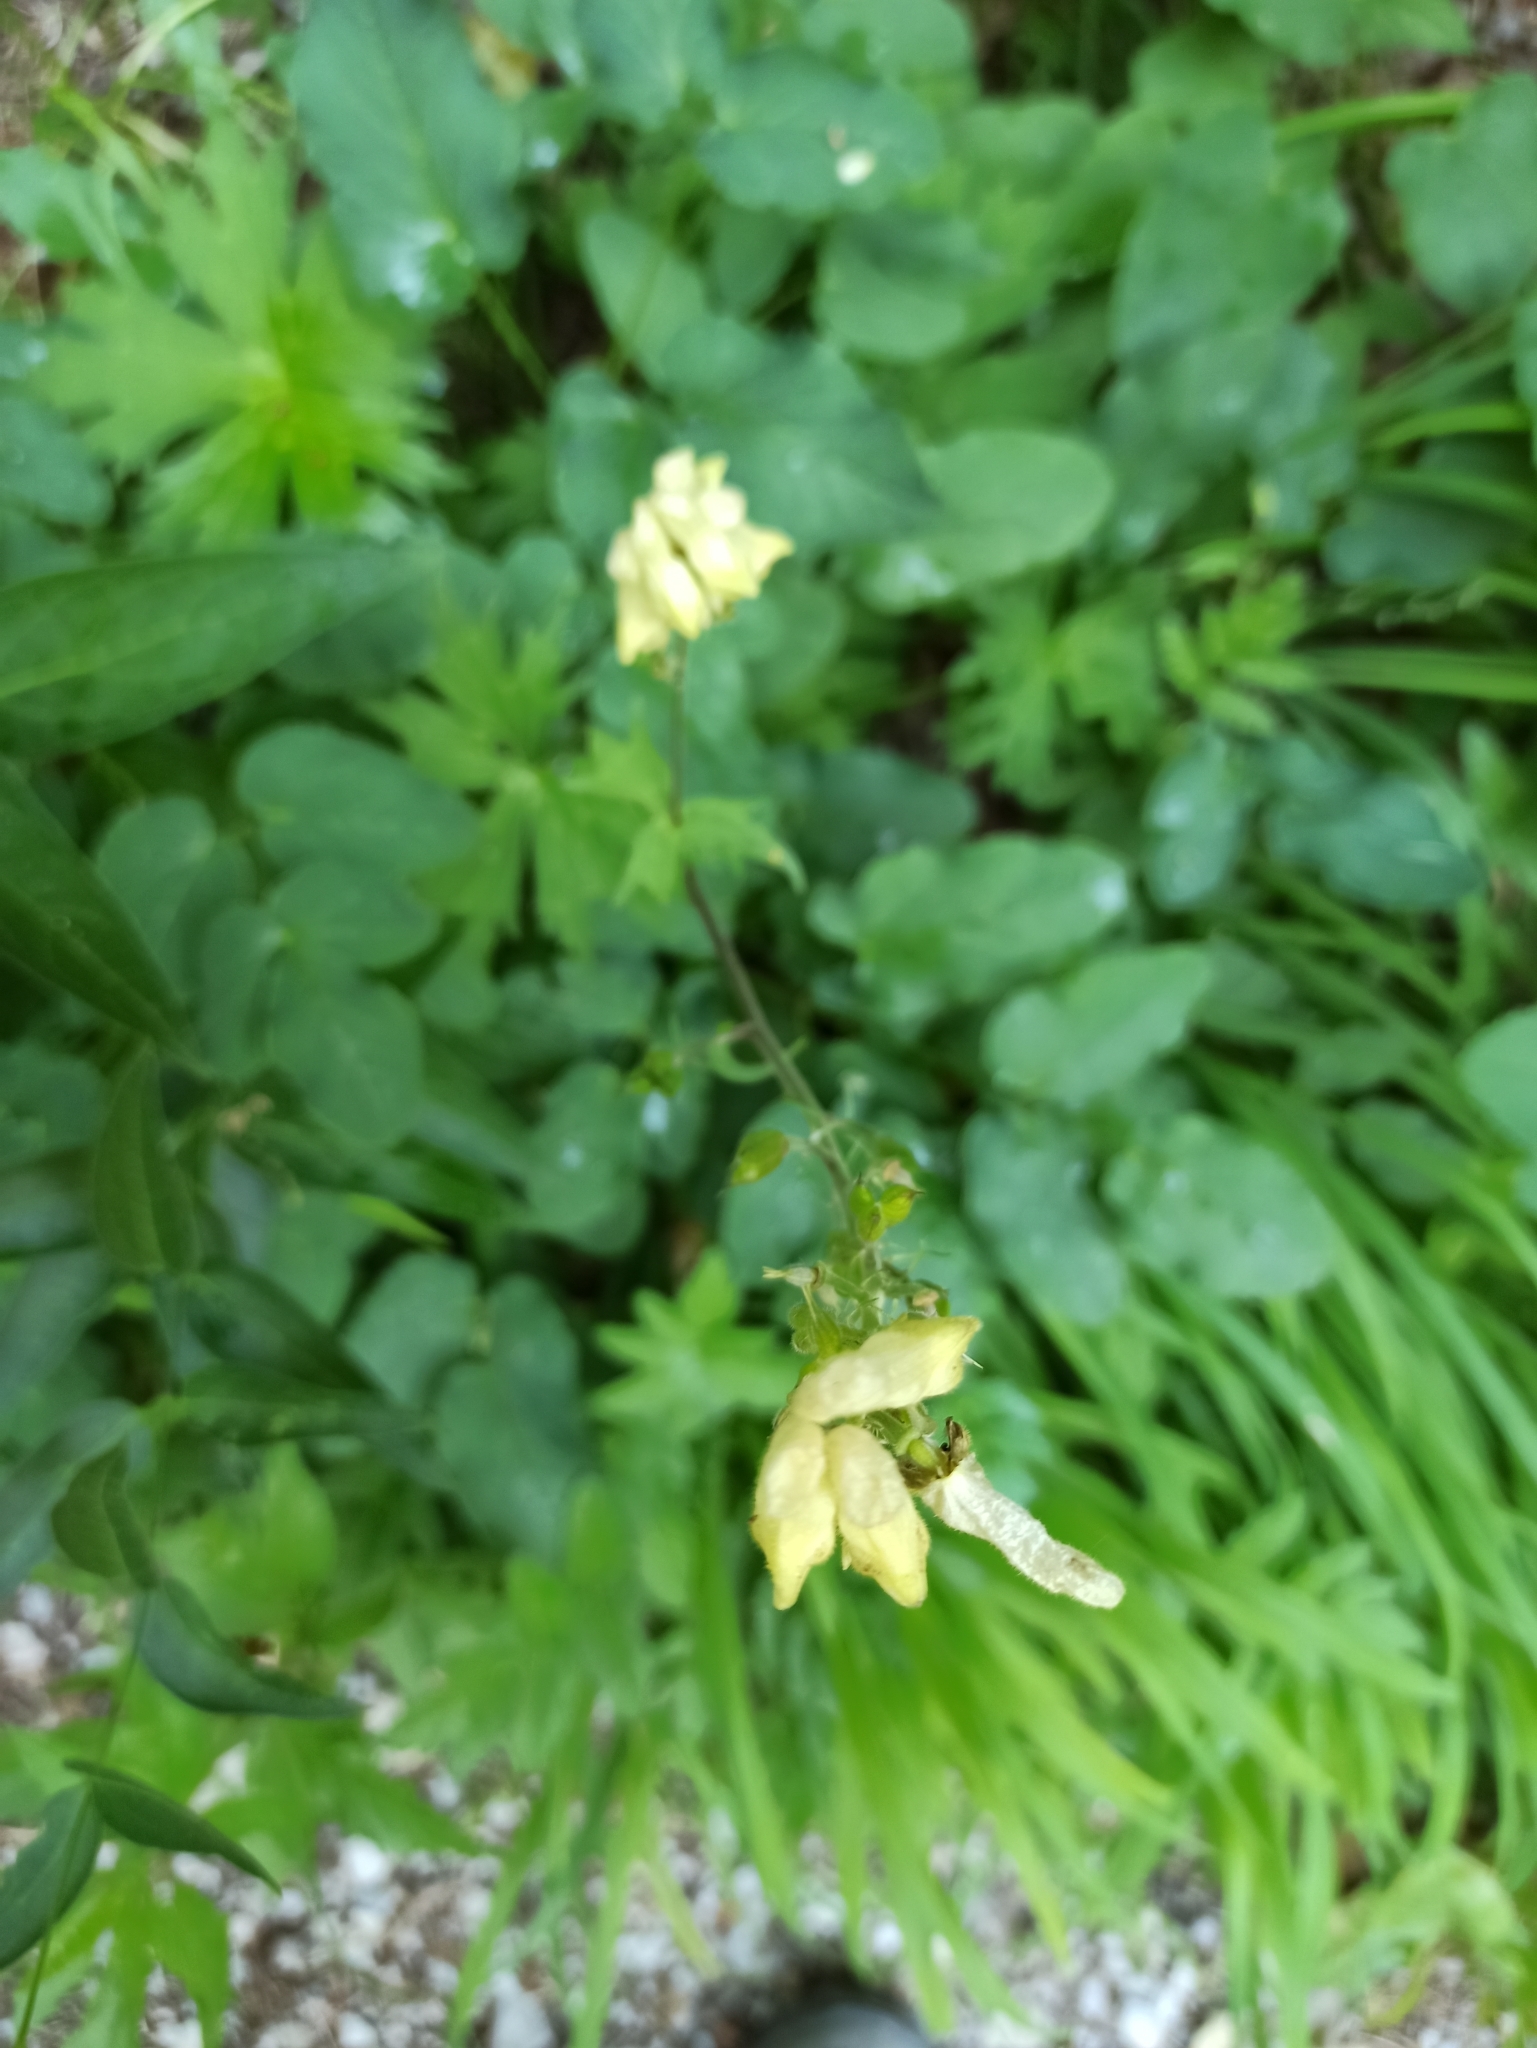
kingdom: Plantae
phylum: Tracheophyta
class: Magnoliopsida
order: Ranunculales
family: Ranunculaceae
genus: Aconitum
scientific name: Aconitum lycoctonum
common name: Wolf's-bane
